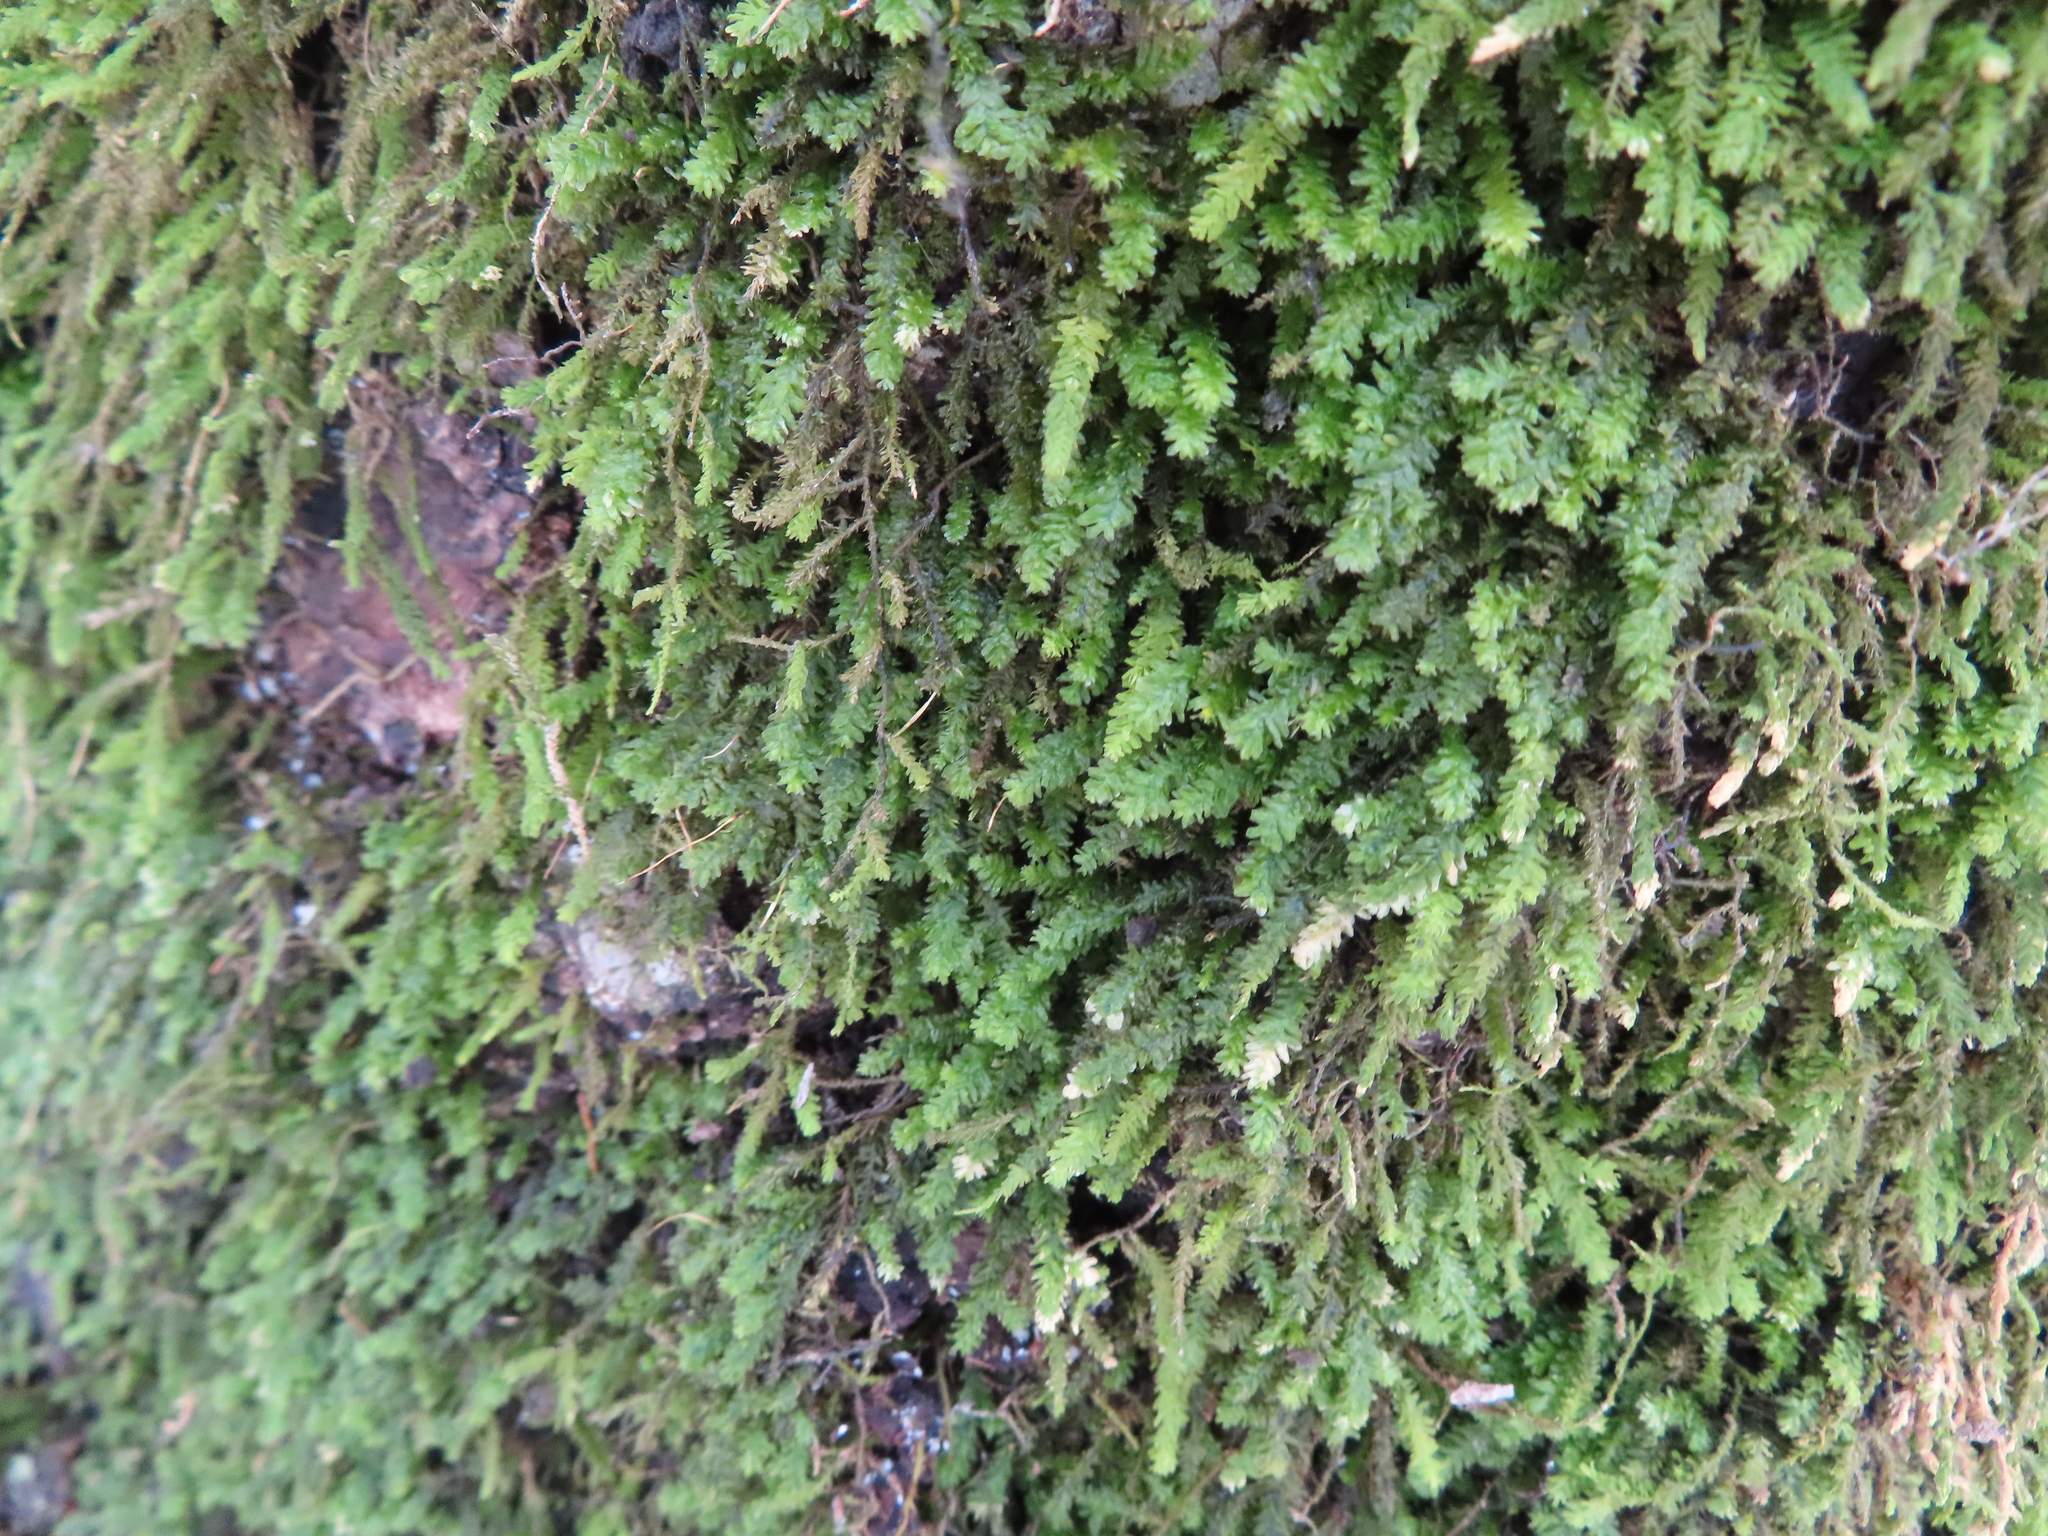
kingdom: Plantae
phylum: Bryophyta
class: Bryopsida
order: Hypnales
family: Anomodontaceae
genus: Anomodon
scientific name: Anomodon minor
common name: Blunt-leaved anomodon
